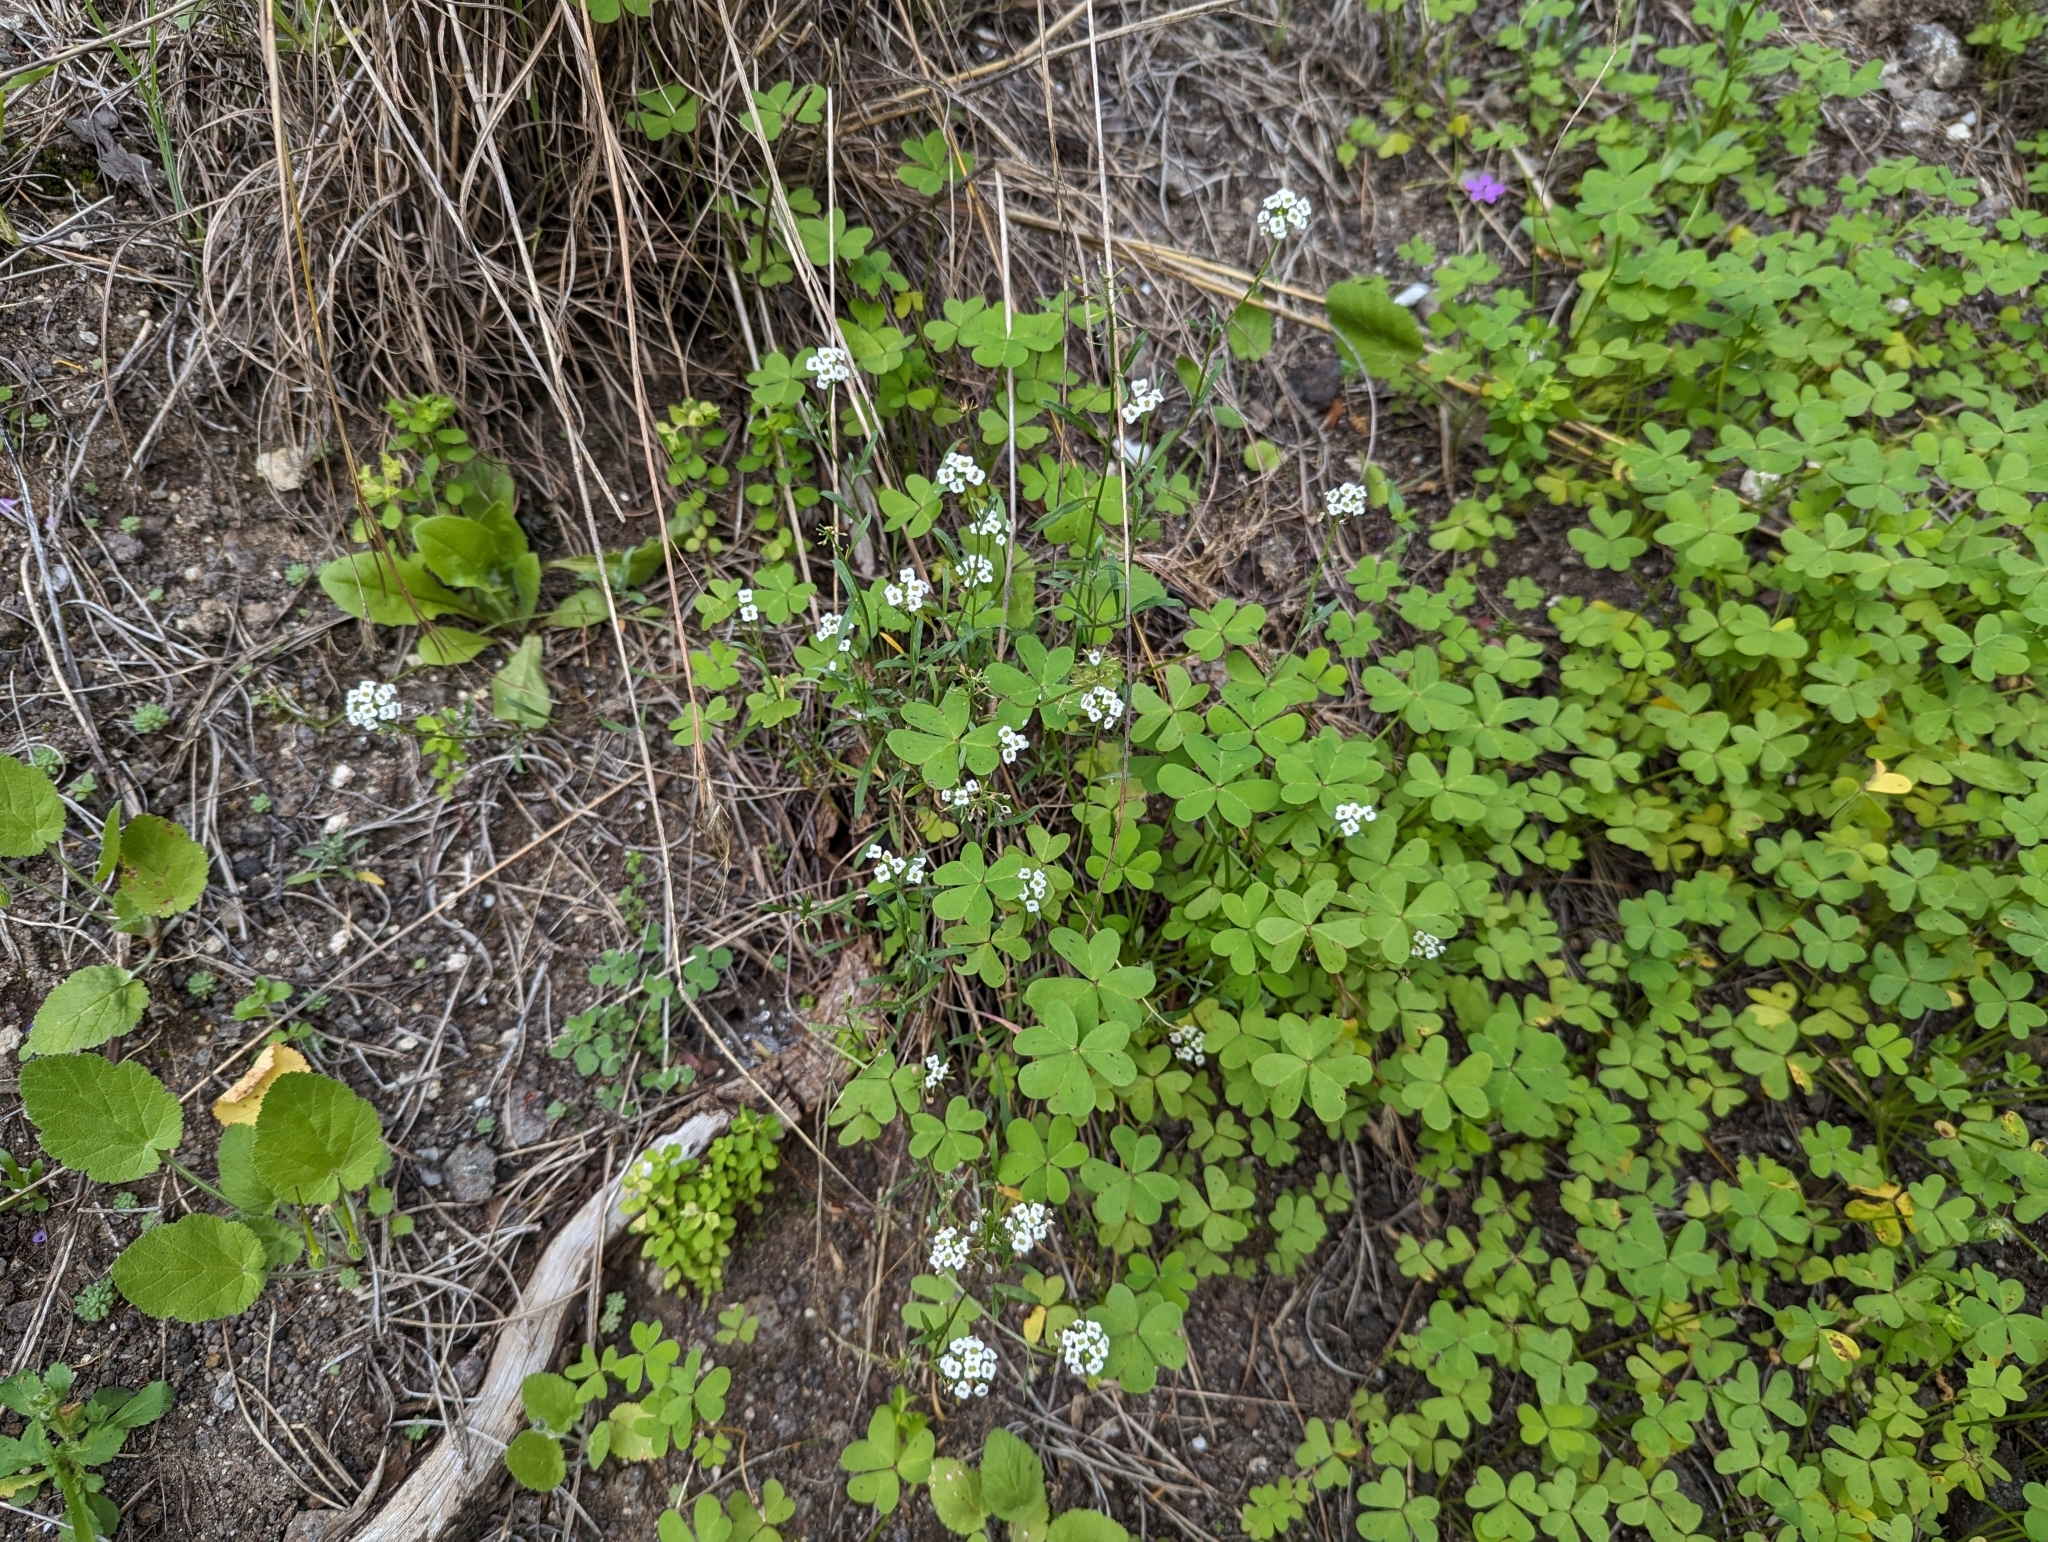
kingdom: Plantae
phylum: Tracheophyta
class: Magnoliopsida
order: Brassicales
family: Brassicaceae
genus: Lobularia
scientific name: Lobularia maritima
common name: Sweet alison
